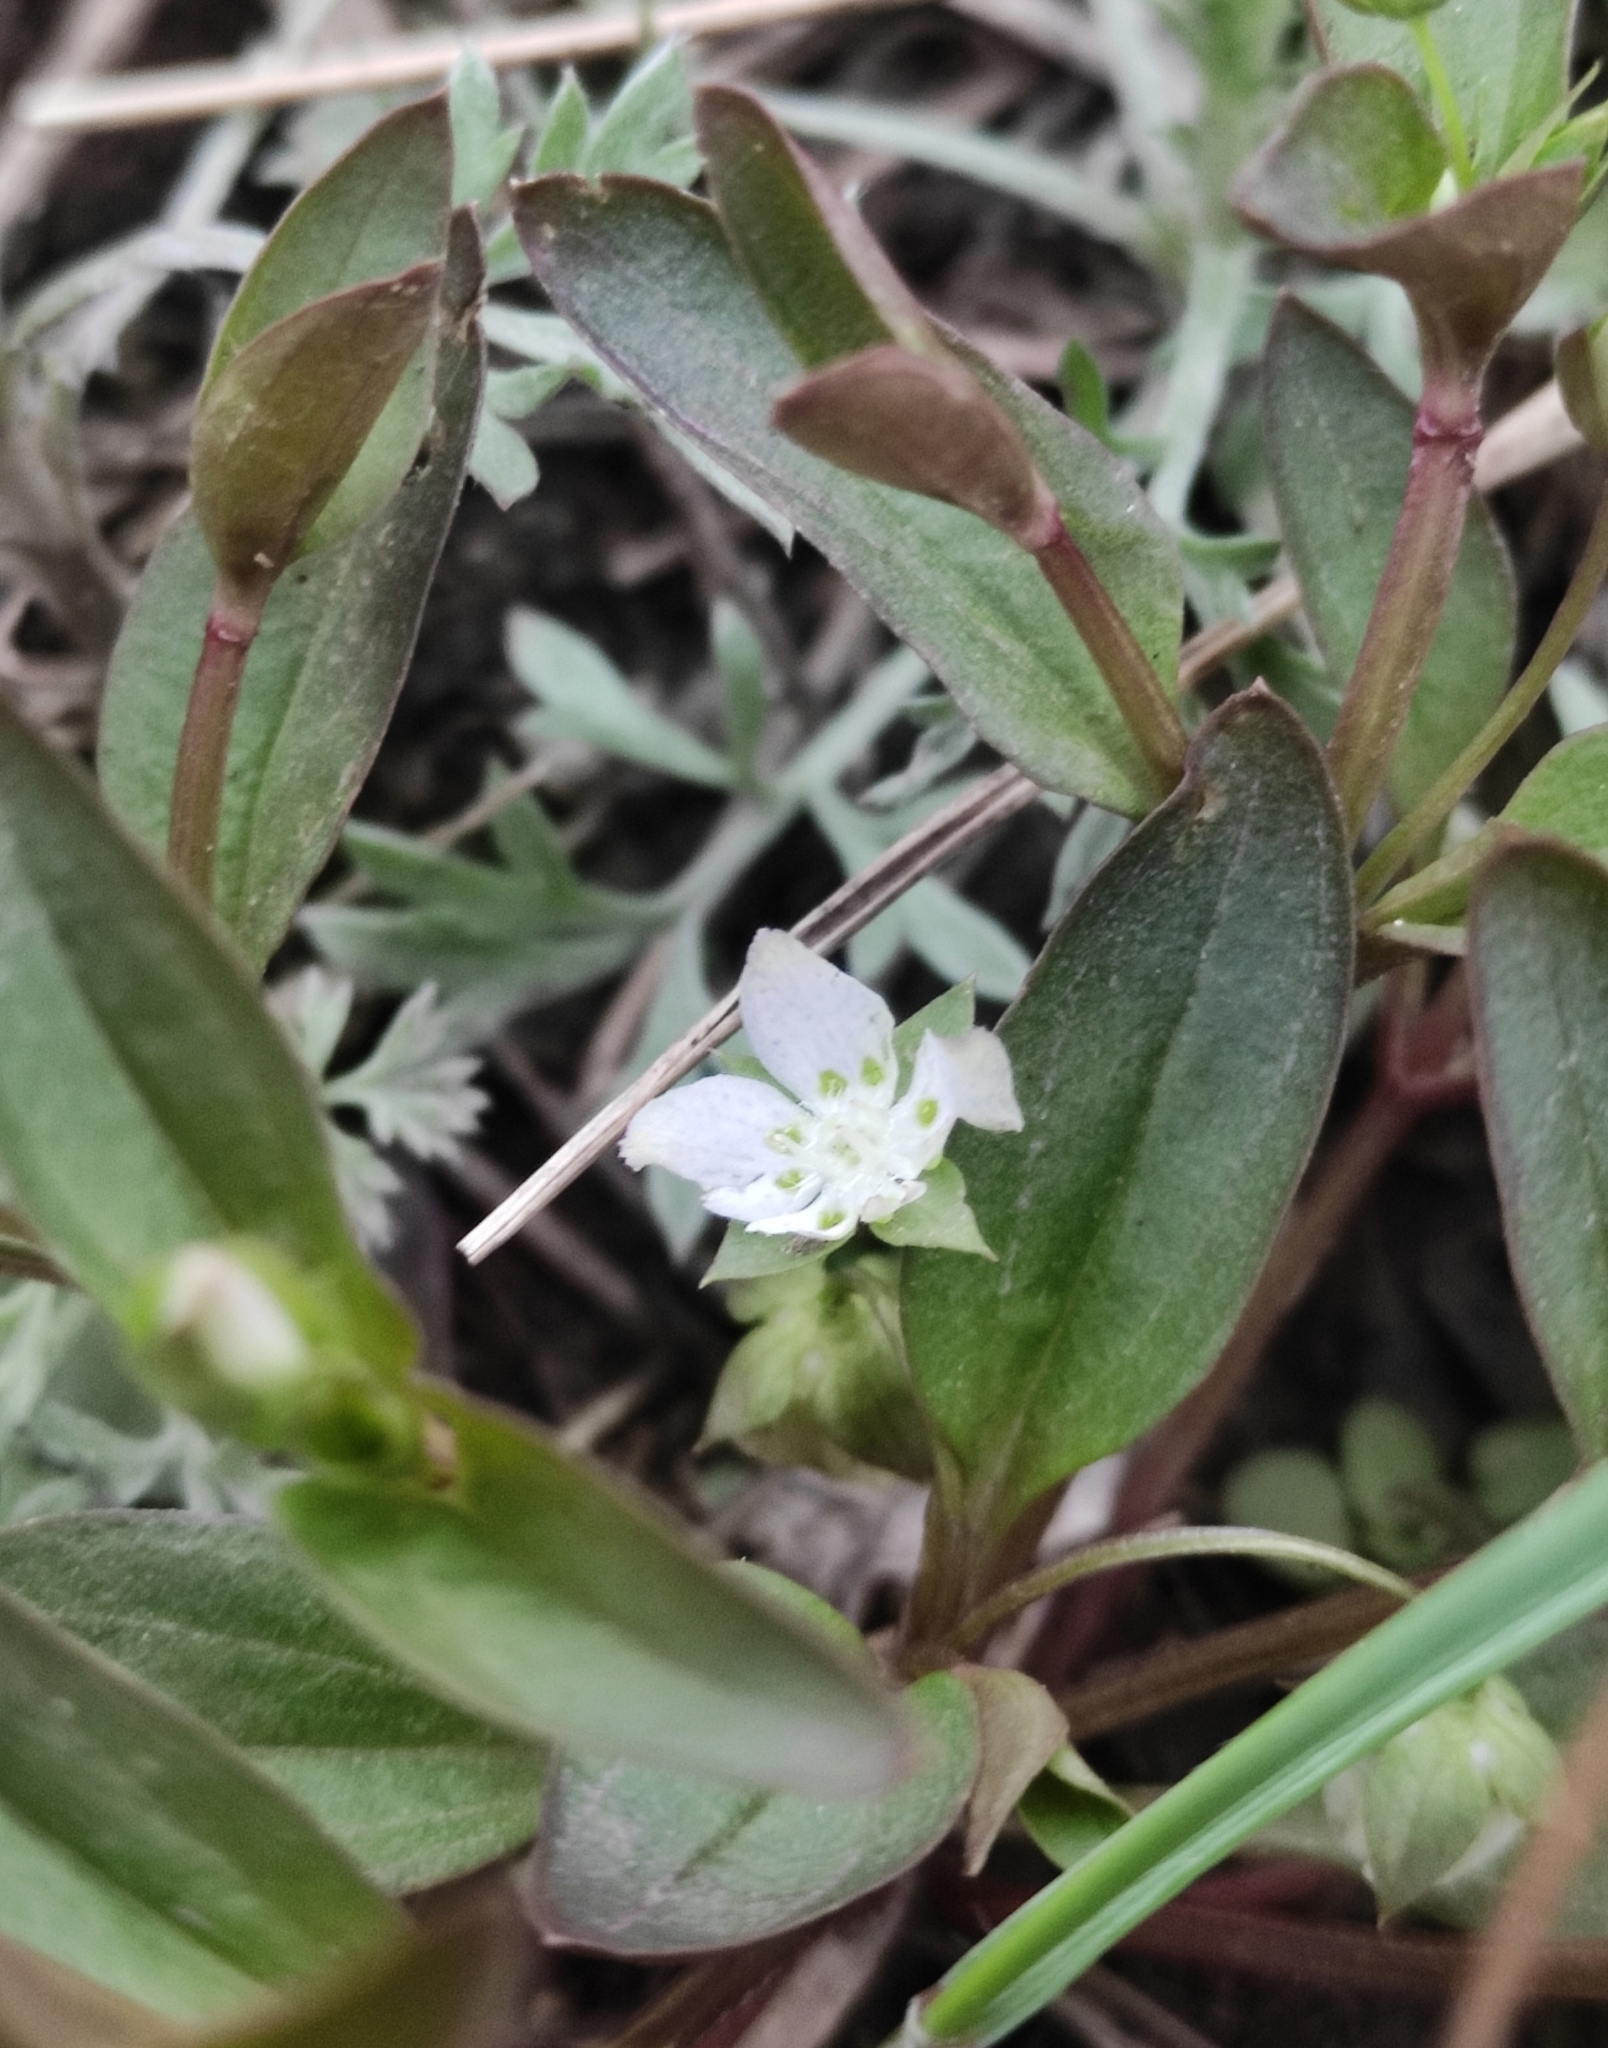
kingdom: Plantae
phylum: Tracheophyta
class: Magnoliopsida
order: Gentianales
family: Gentianaceae
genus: Swertia
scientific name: Swertia dichotoma
